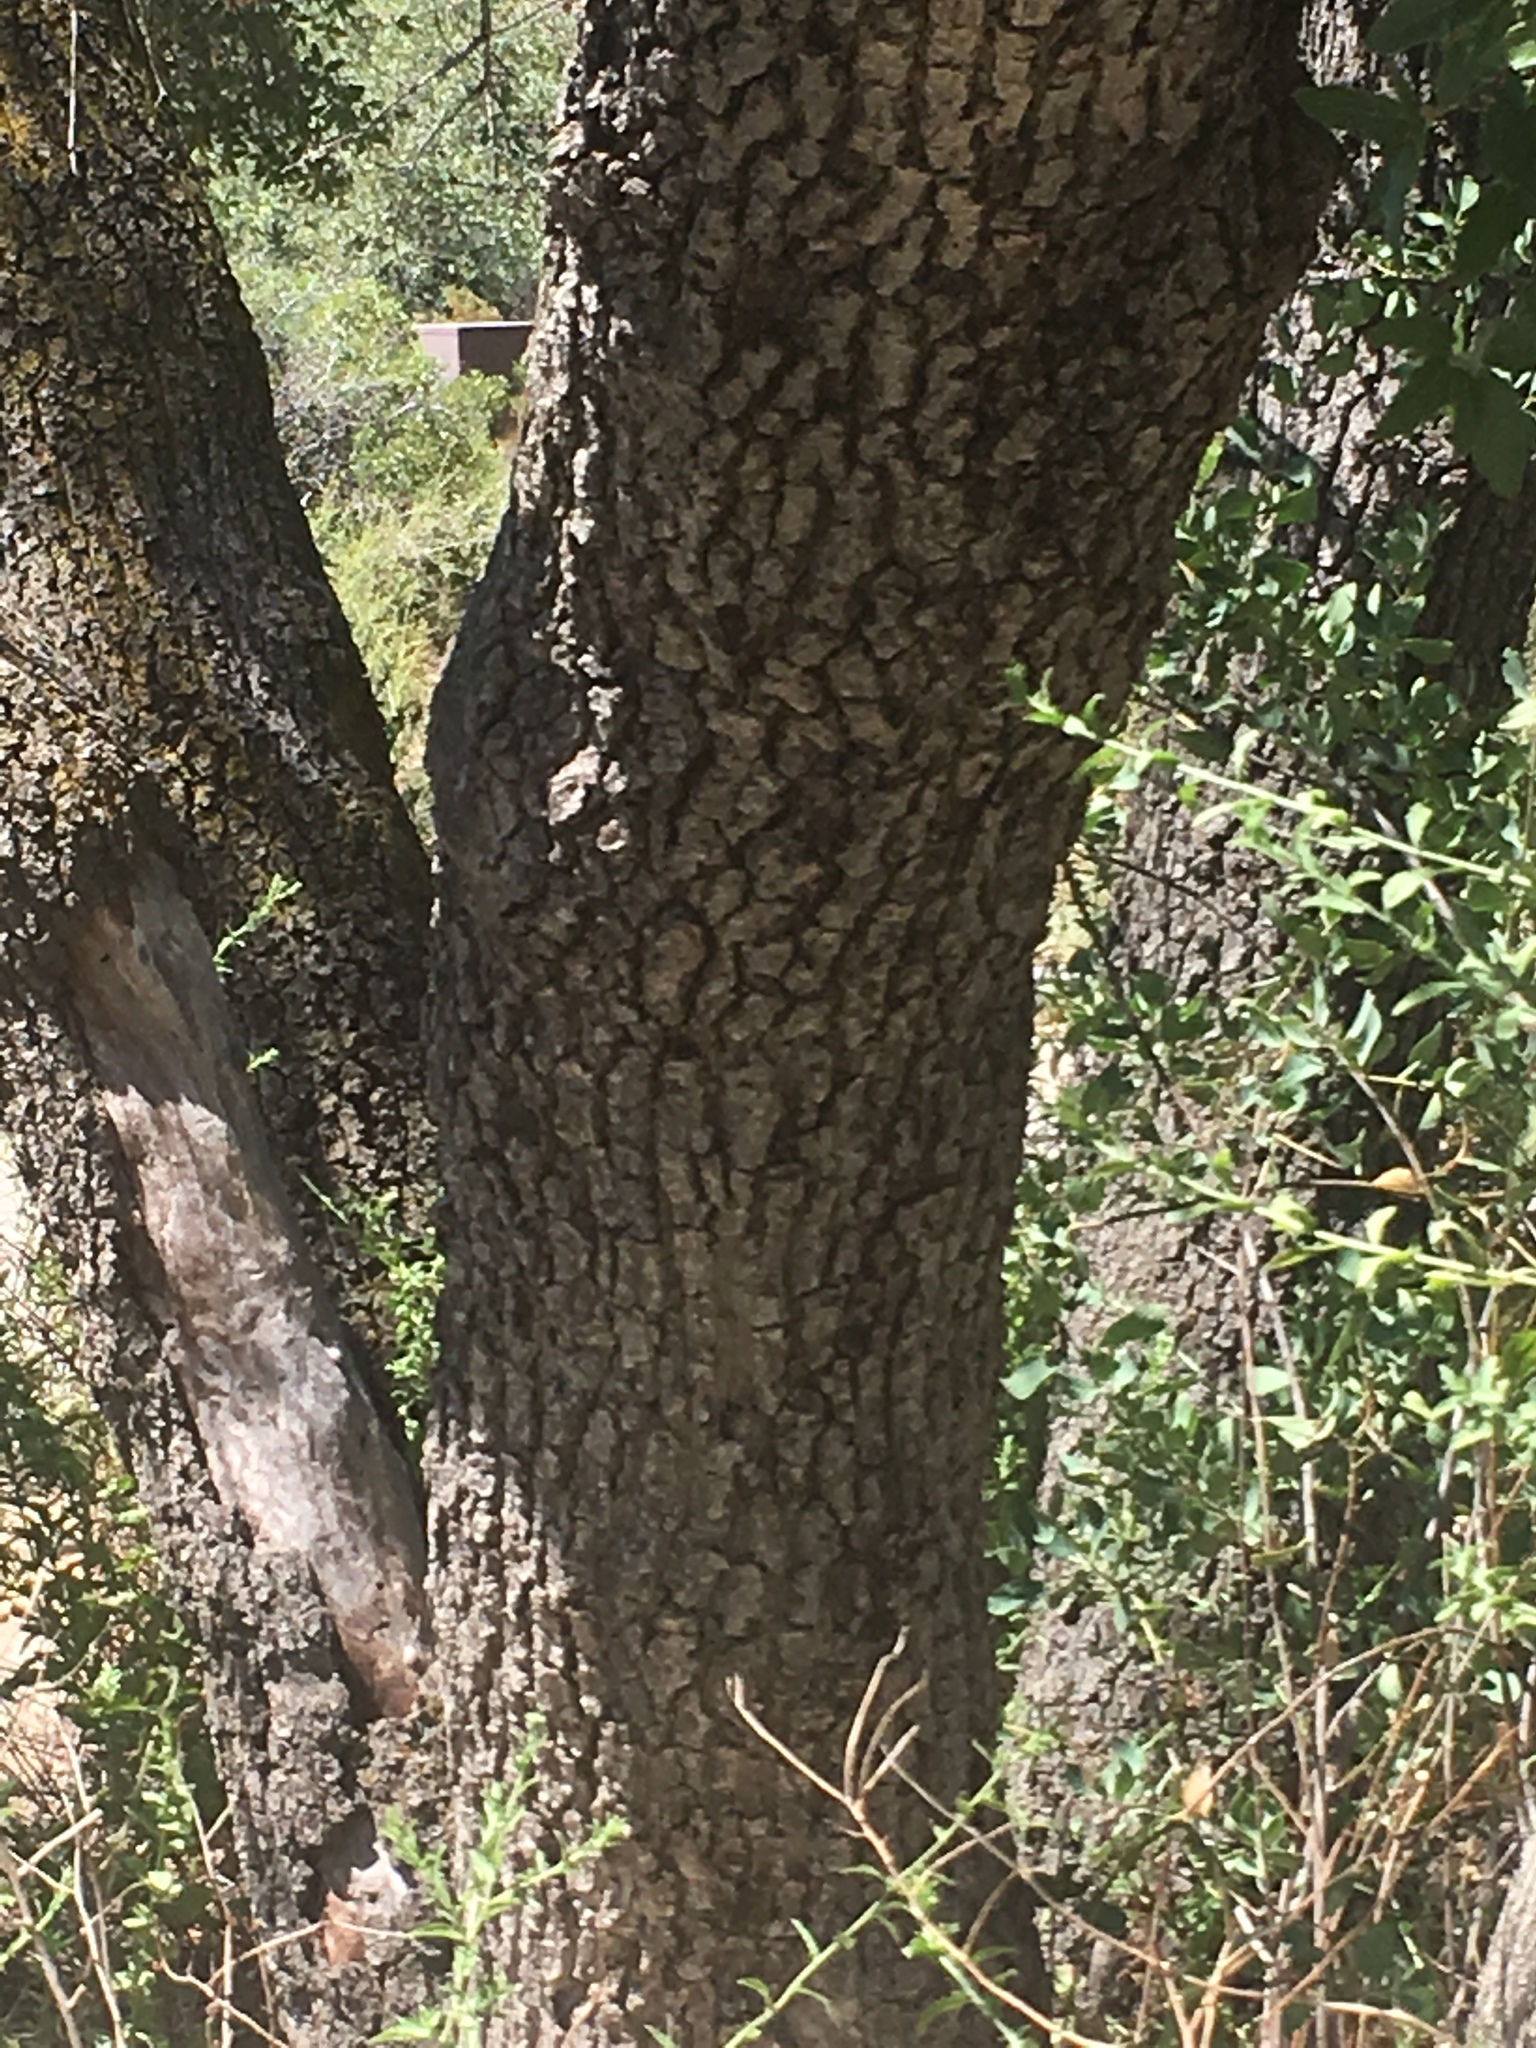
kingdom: Plantae
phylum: Tracheophyta
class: Magnoliopsida
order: Fagales
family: Fagaceae
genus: Quercus
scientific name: Quercus emoryi
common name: Emory oak
